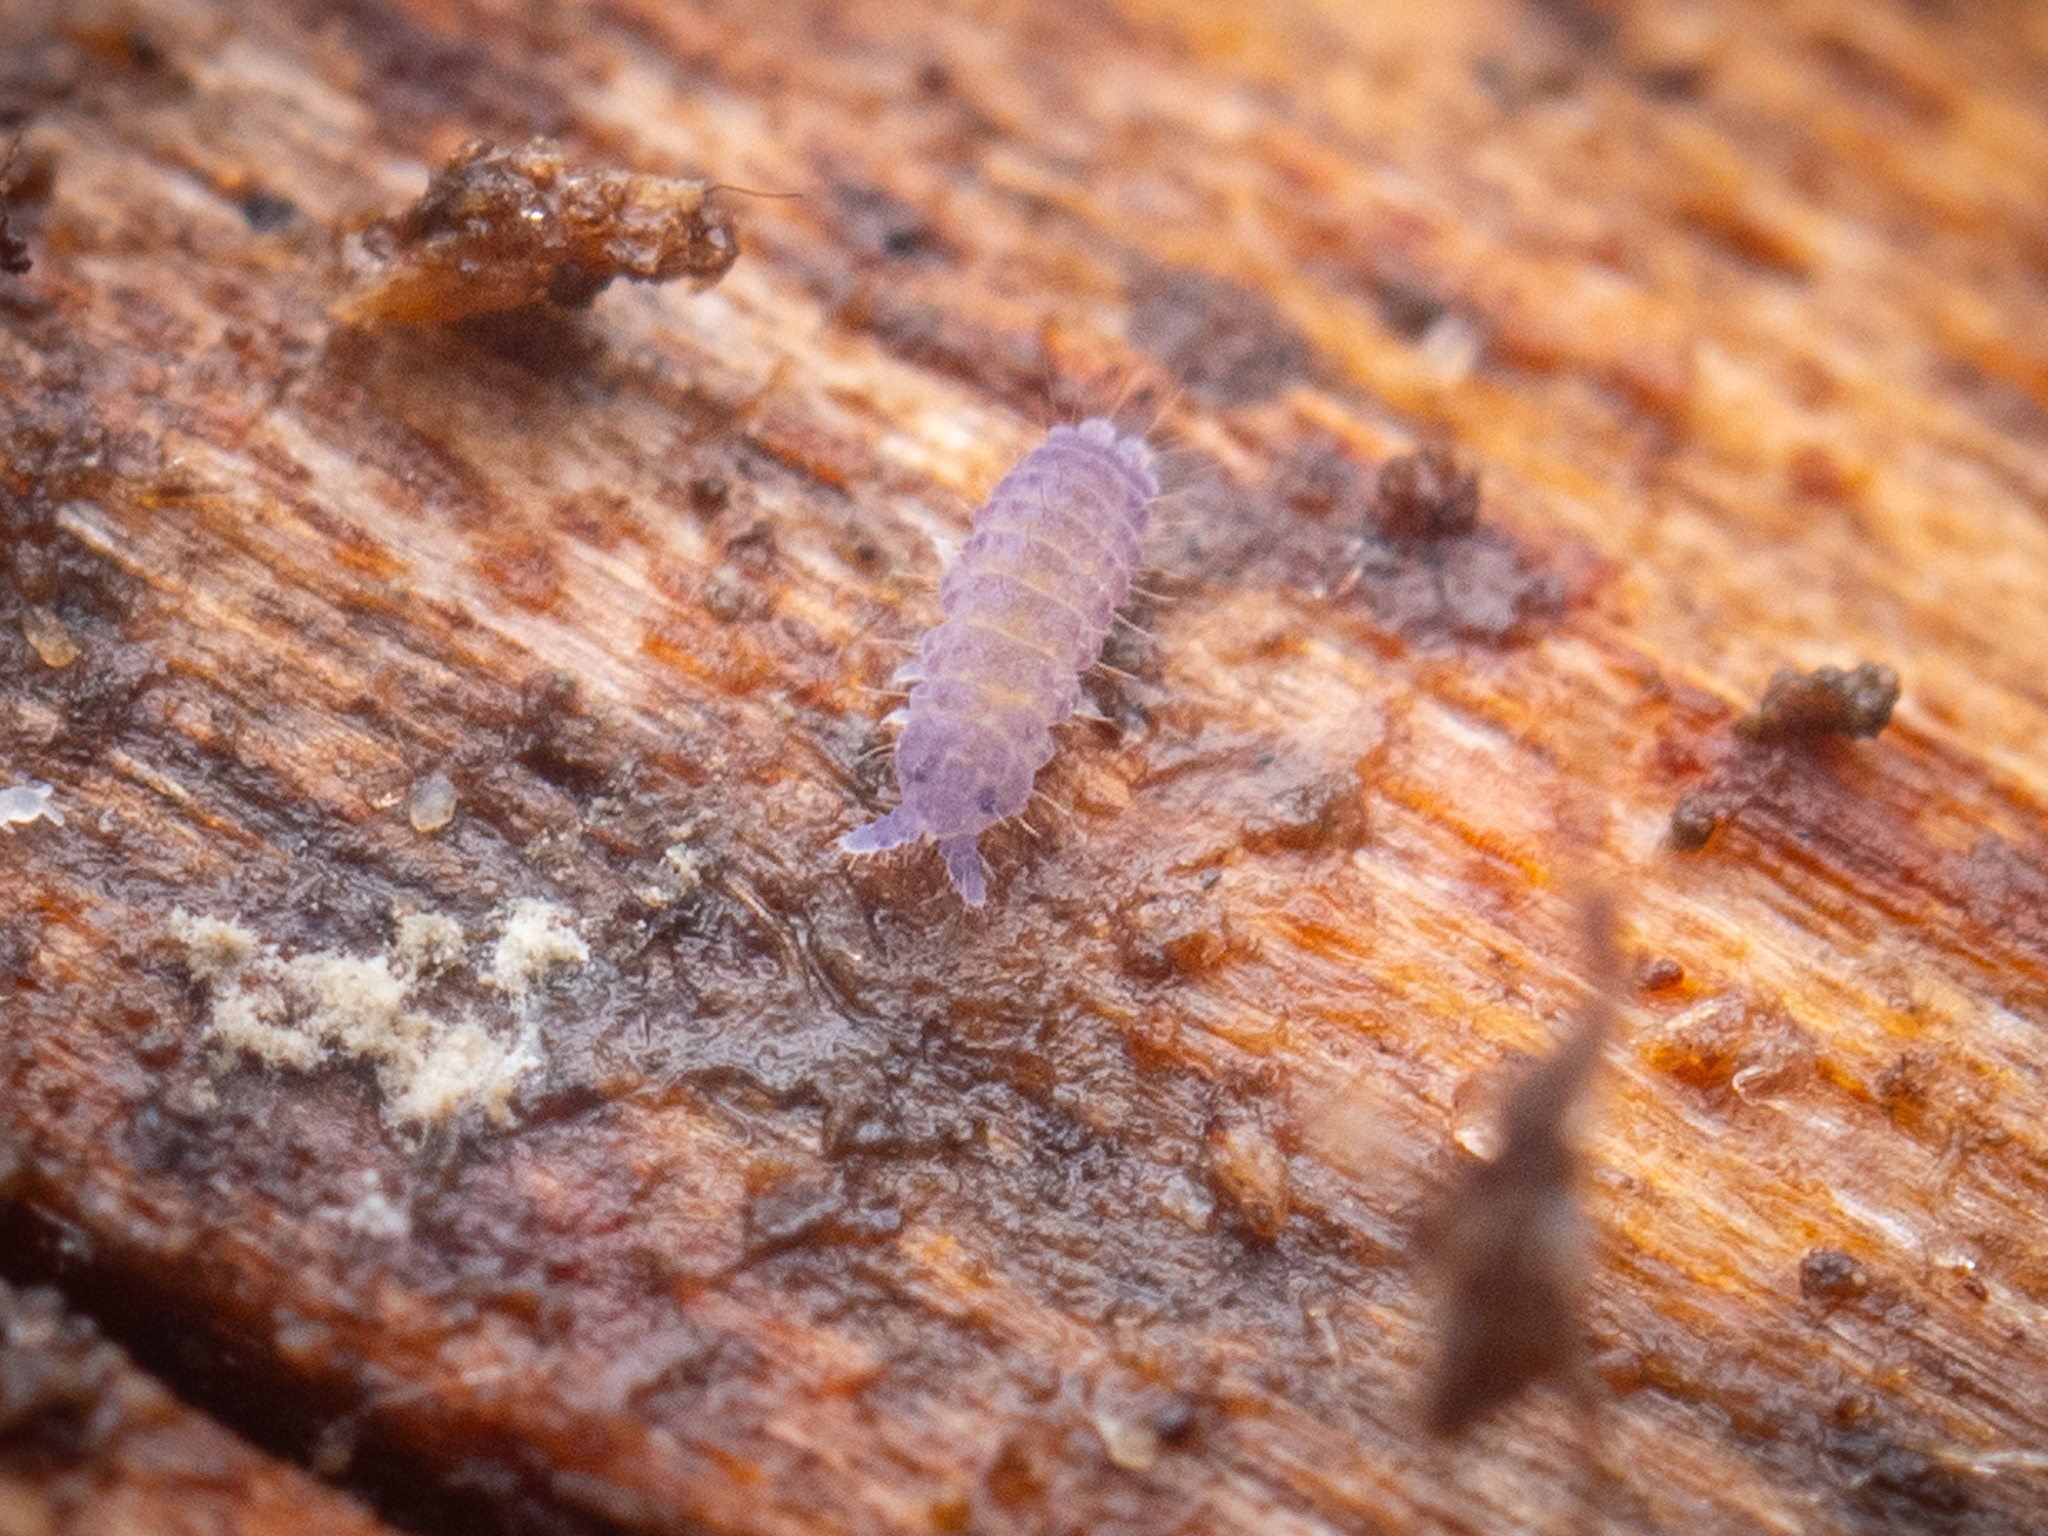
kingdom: Animalia
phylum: Arthropoda
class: Collembola
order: Poduromorpha
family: Neanuridae
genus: Neanura
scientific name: Neanura muscorum
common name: Springtail
